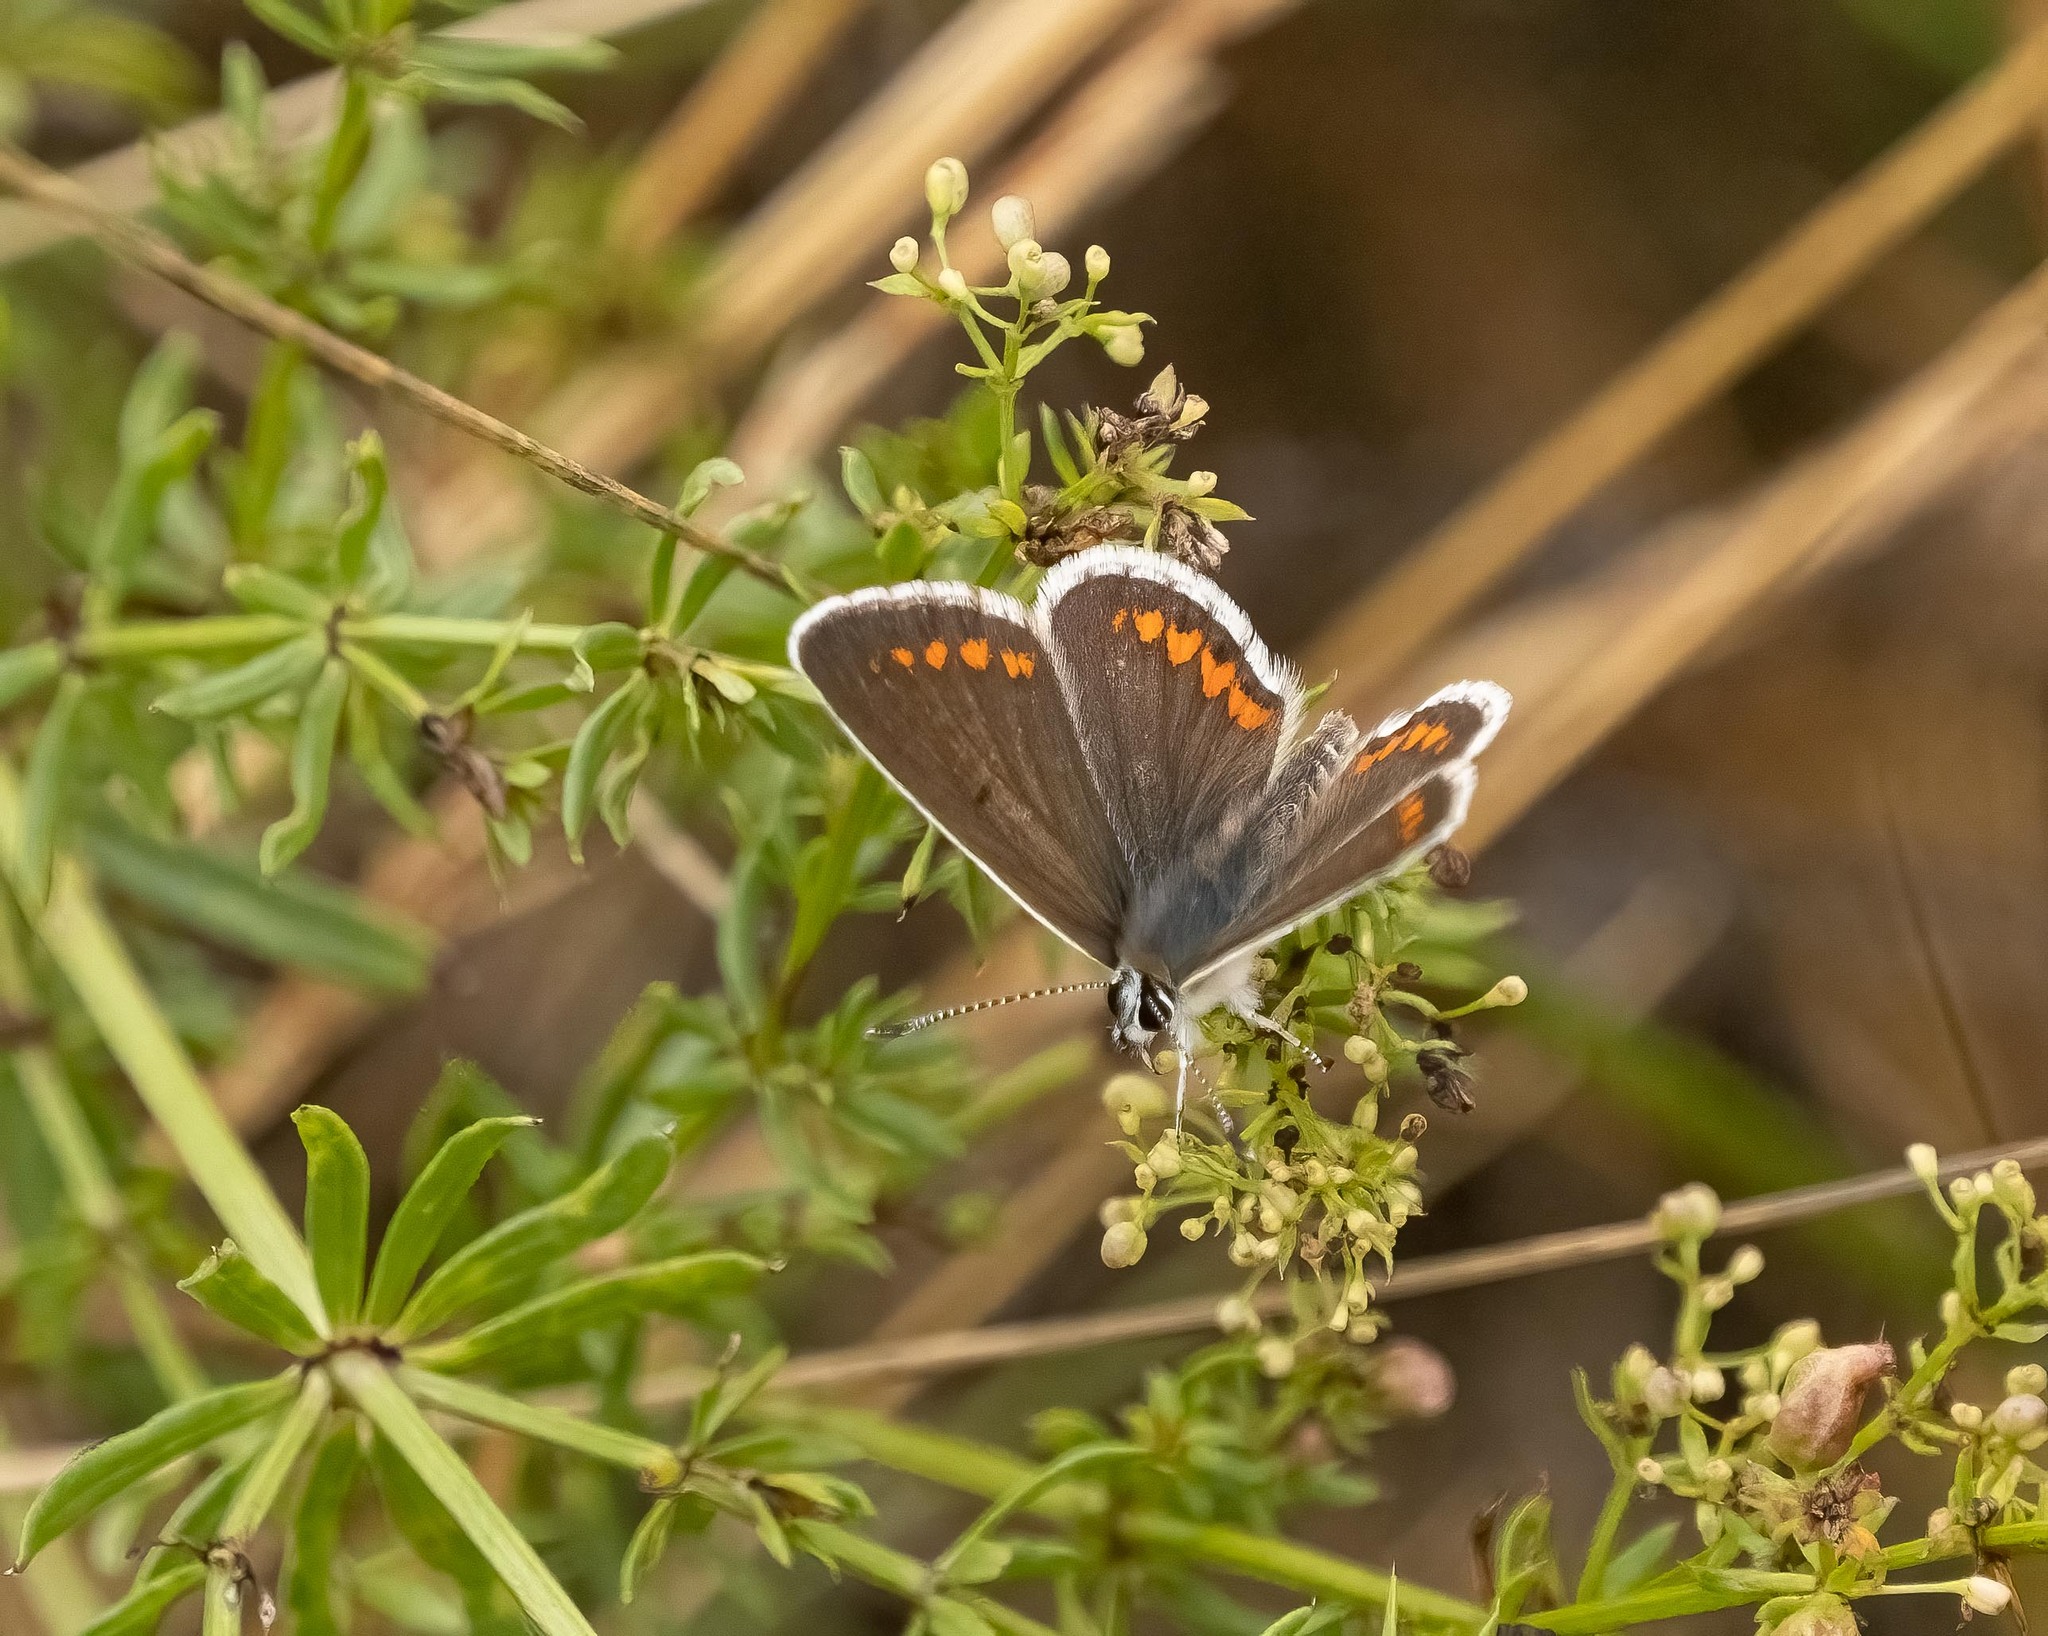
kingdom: Animalia
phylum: Arthropoda
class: Insecta
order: Lepidoptera
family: Lycaenidae
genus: Aricia
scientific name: Aricia agestis
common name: Brown argus
